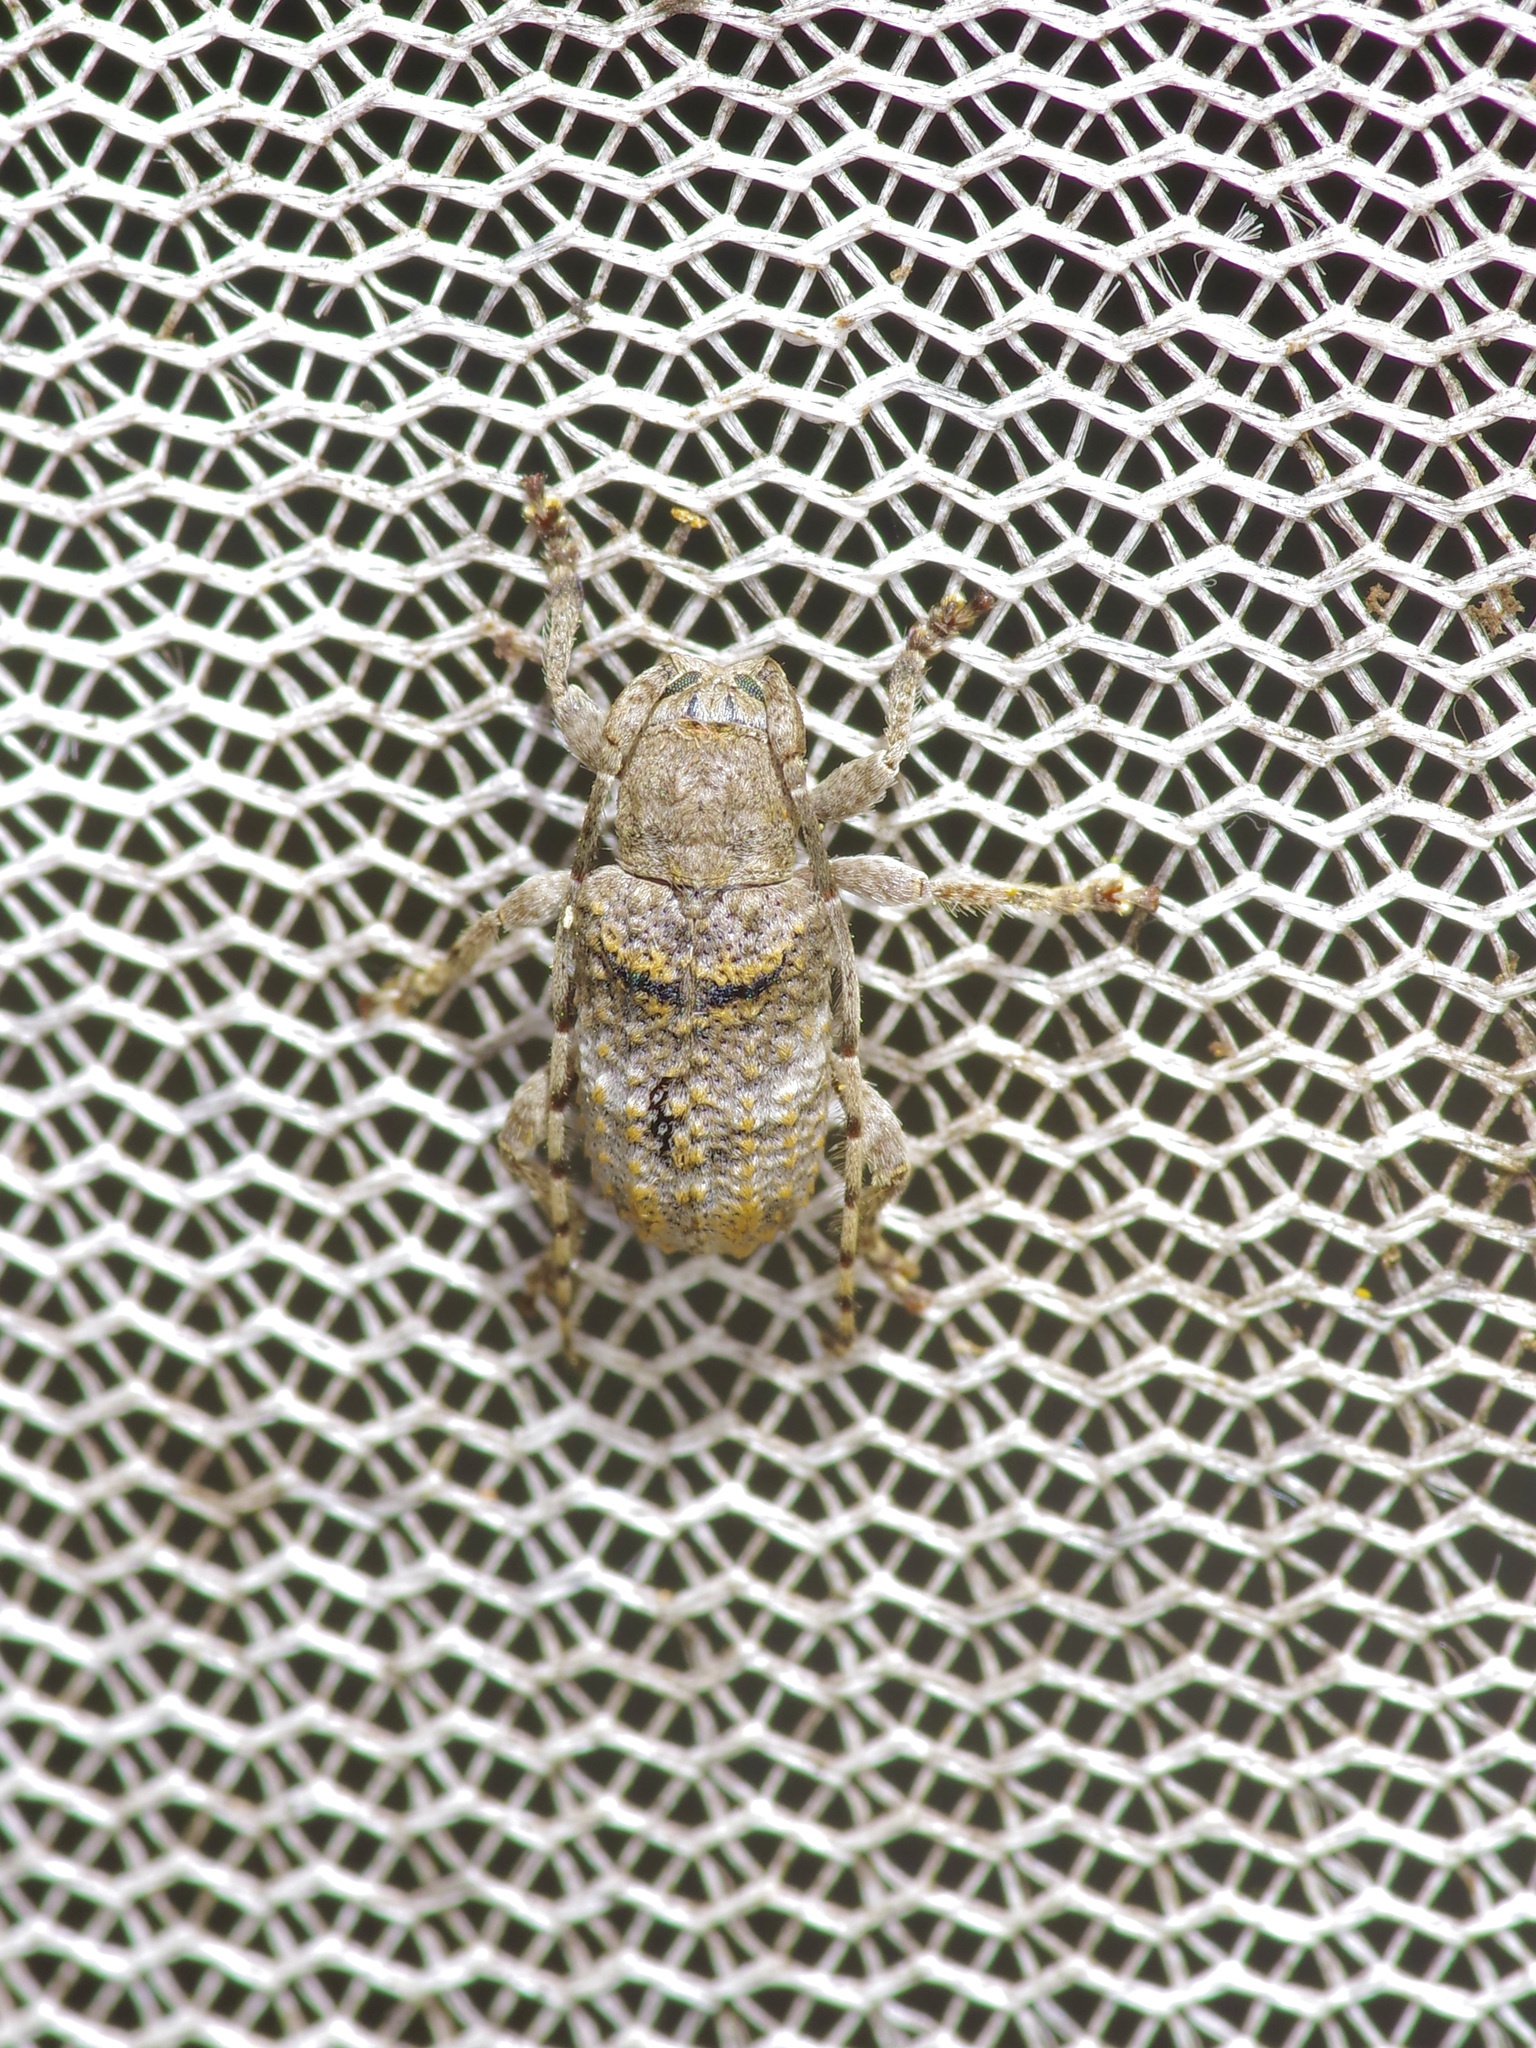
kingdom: Animalia
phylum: Arthropoda
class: Insecta
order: Coleoptera
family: Cerambycidae
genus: Ecyrus
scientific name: Ecyrus dasycerus
